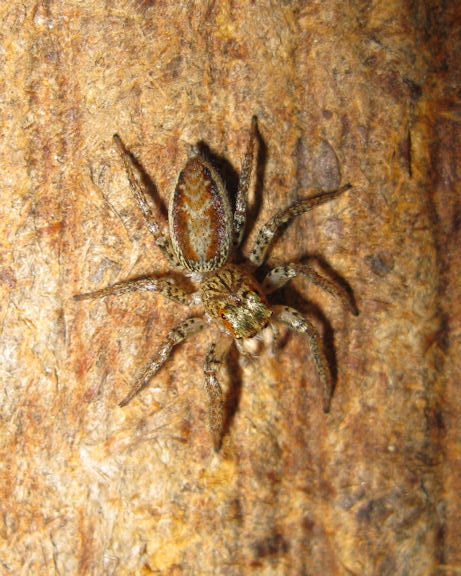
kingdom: Animalia
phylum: Arthropoda
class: Arachnida
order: Araneae
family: Salticidae
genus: Maevia
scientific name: Maevia inclemens
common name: Dimorphic jumper
